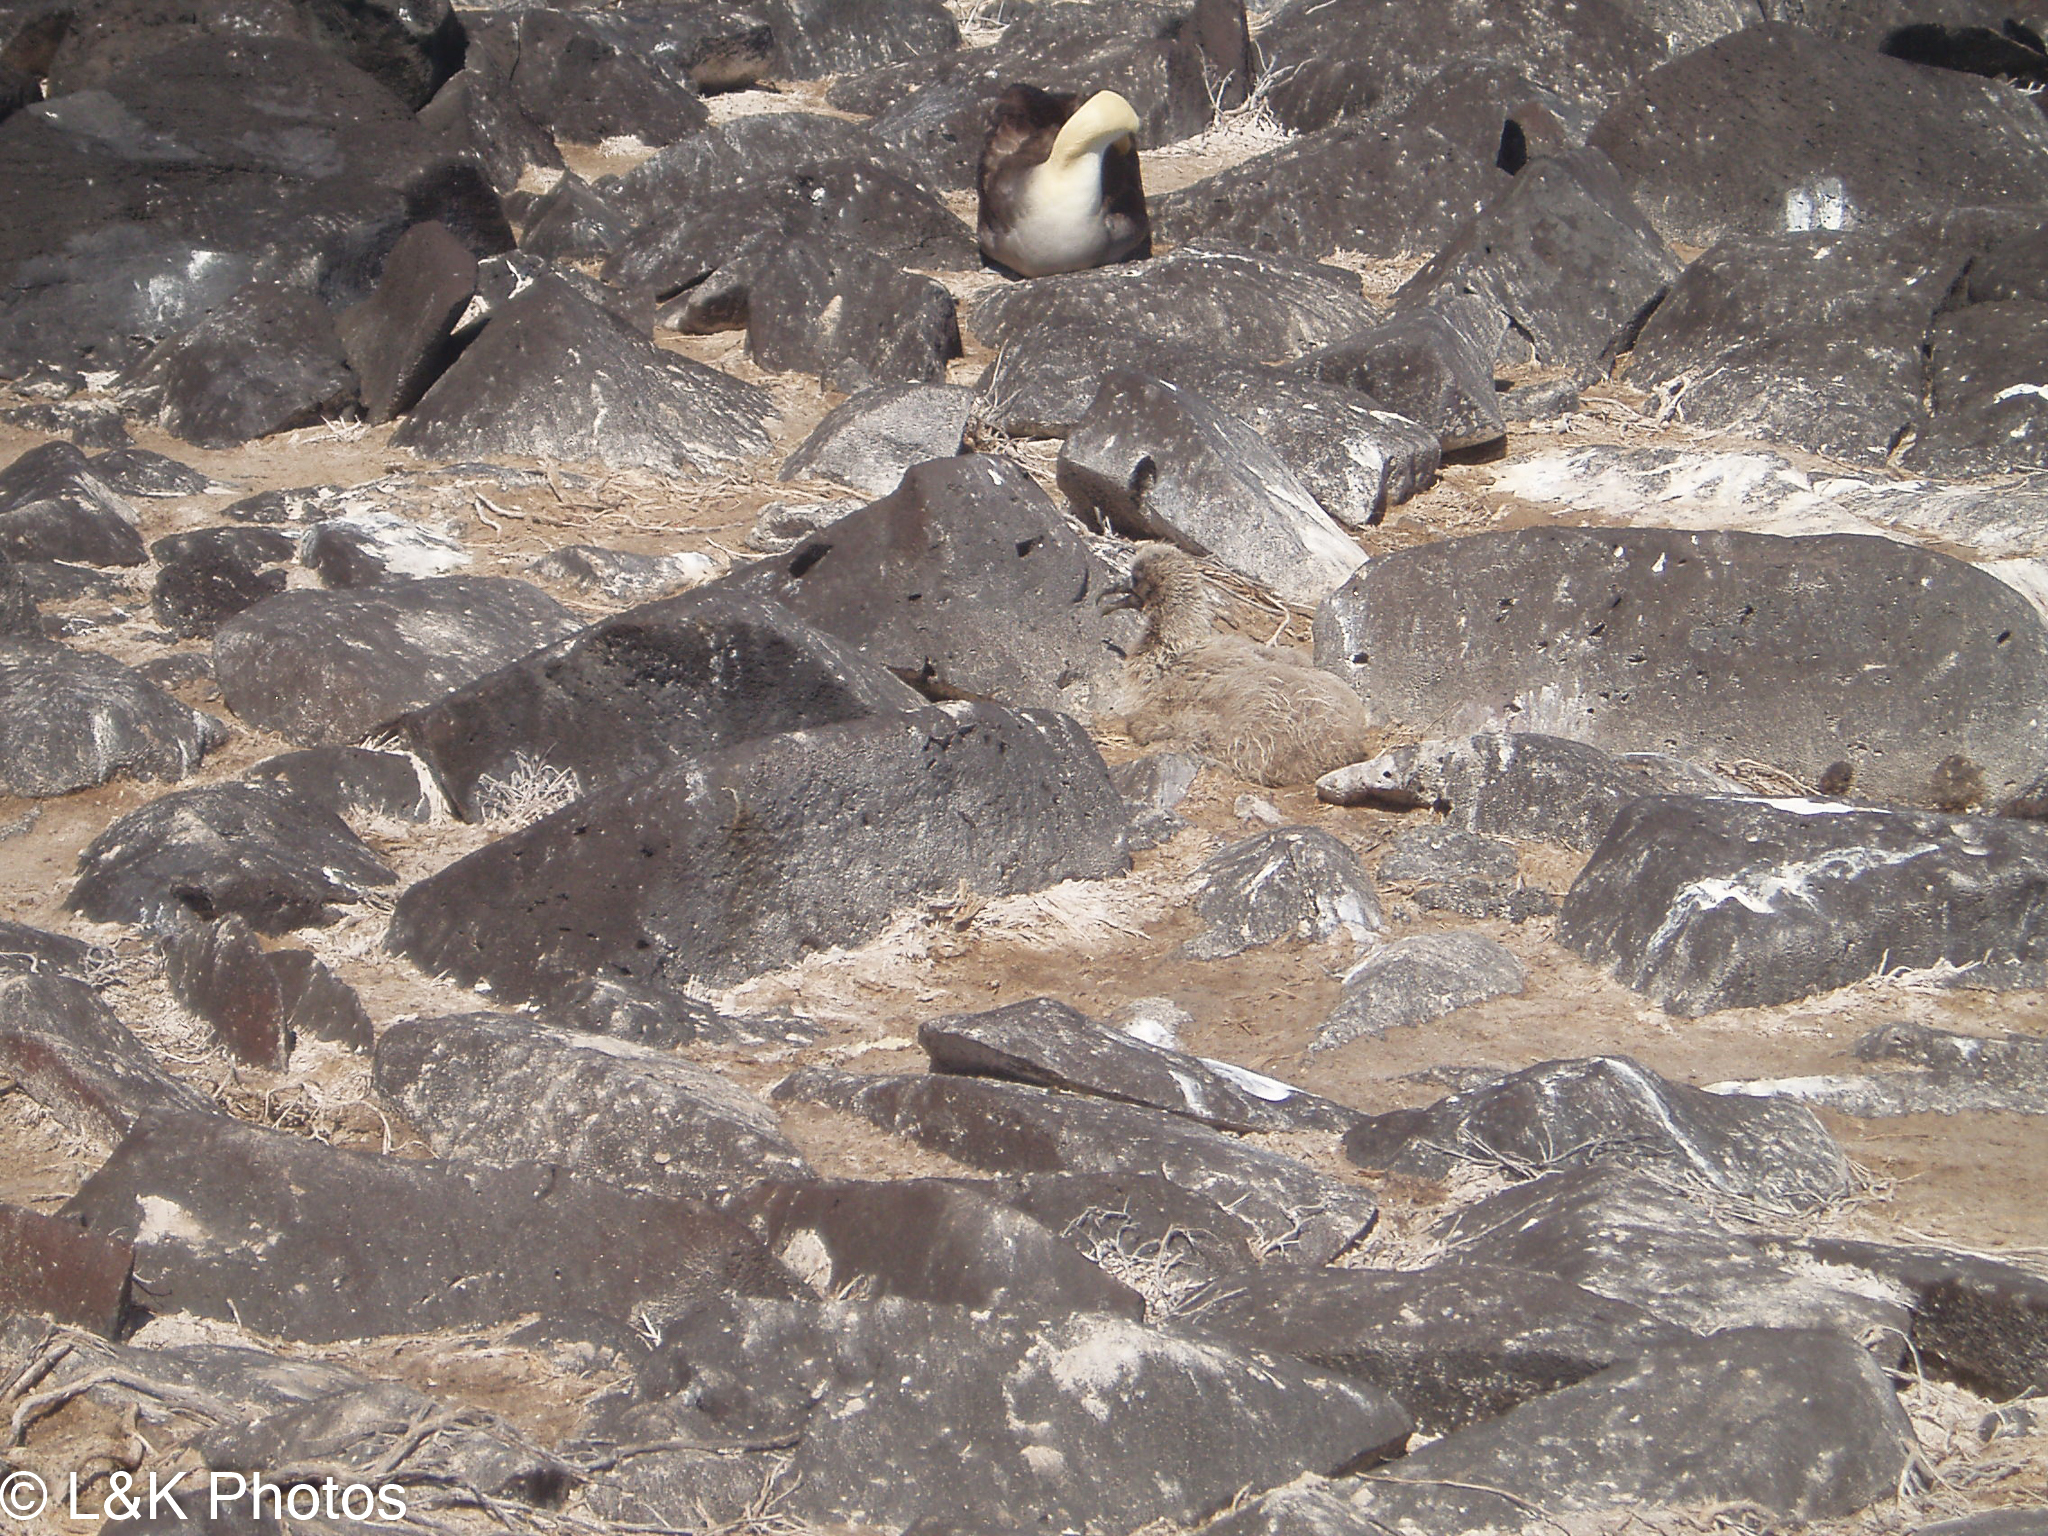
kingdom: Animalia
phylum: Chordata
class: Aves
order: Procellariiformes
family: Diomedeidae
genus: Phoebastria
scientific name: Phoebastria irrorata
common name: Waved albatross
